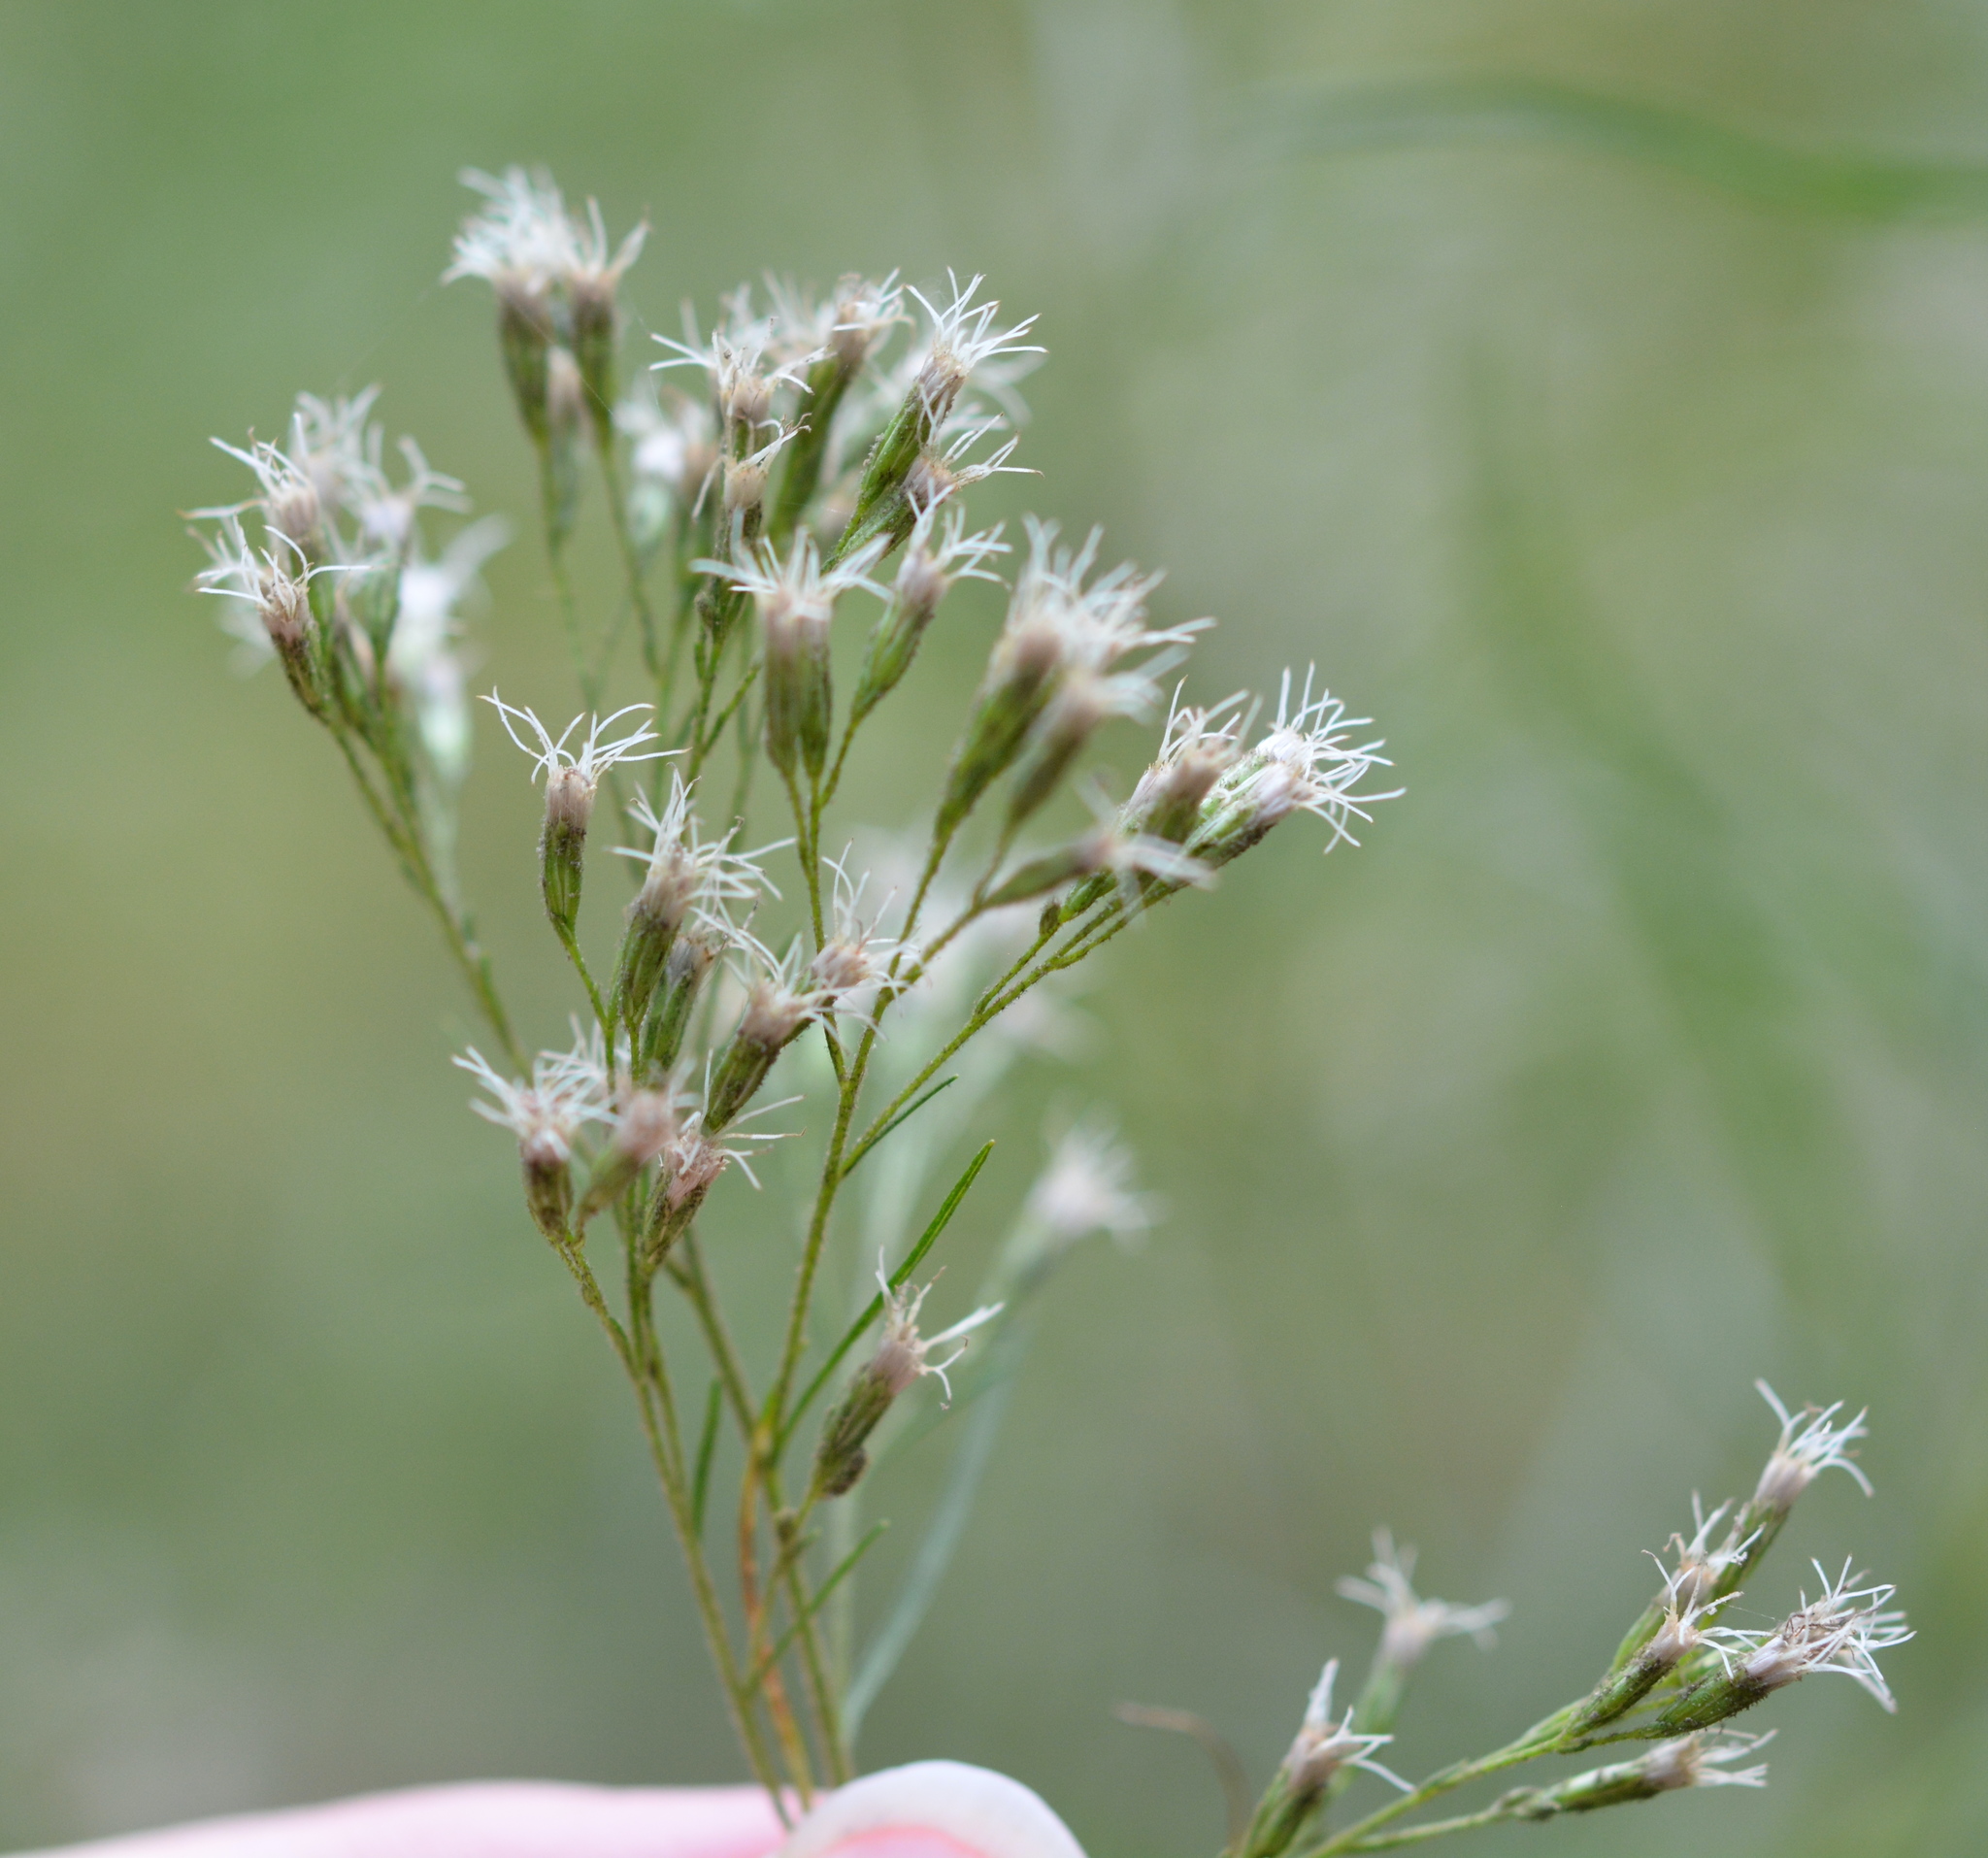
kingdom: Plantae
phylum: Tracheophyta
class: Magnoliopsida
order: Asterales
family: Asteraceae
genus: Eupatorium
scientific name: Eupatorium compositifolium
